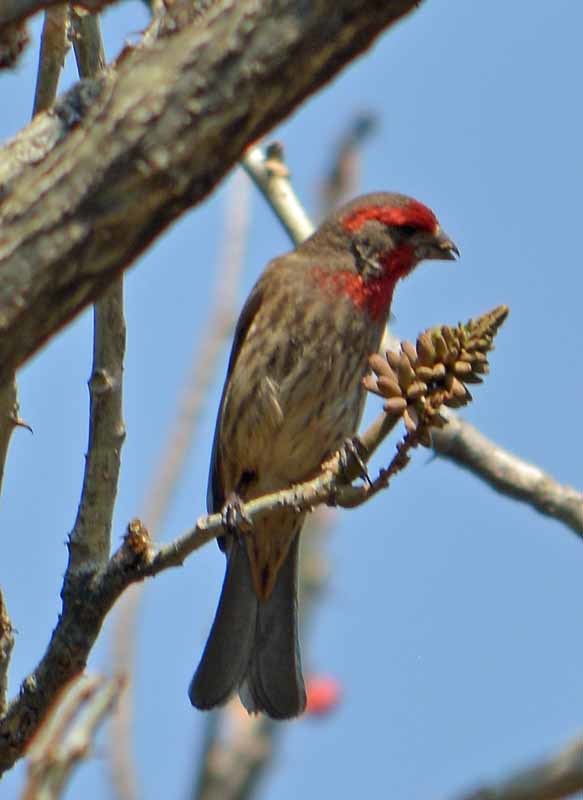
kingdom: Animalia
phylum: Chordata
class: Aves
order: Passeriformes
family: Fringillidae
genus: Haemorhous
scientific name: Haemorhous mexicanus
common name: House finch
